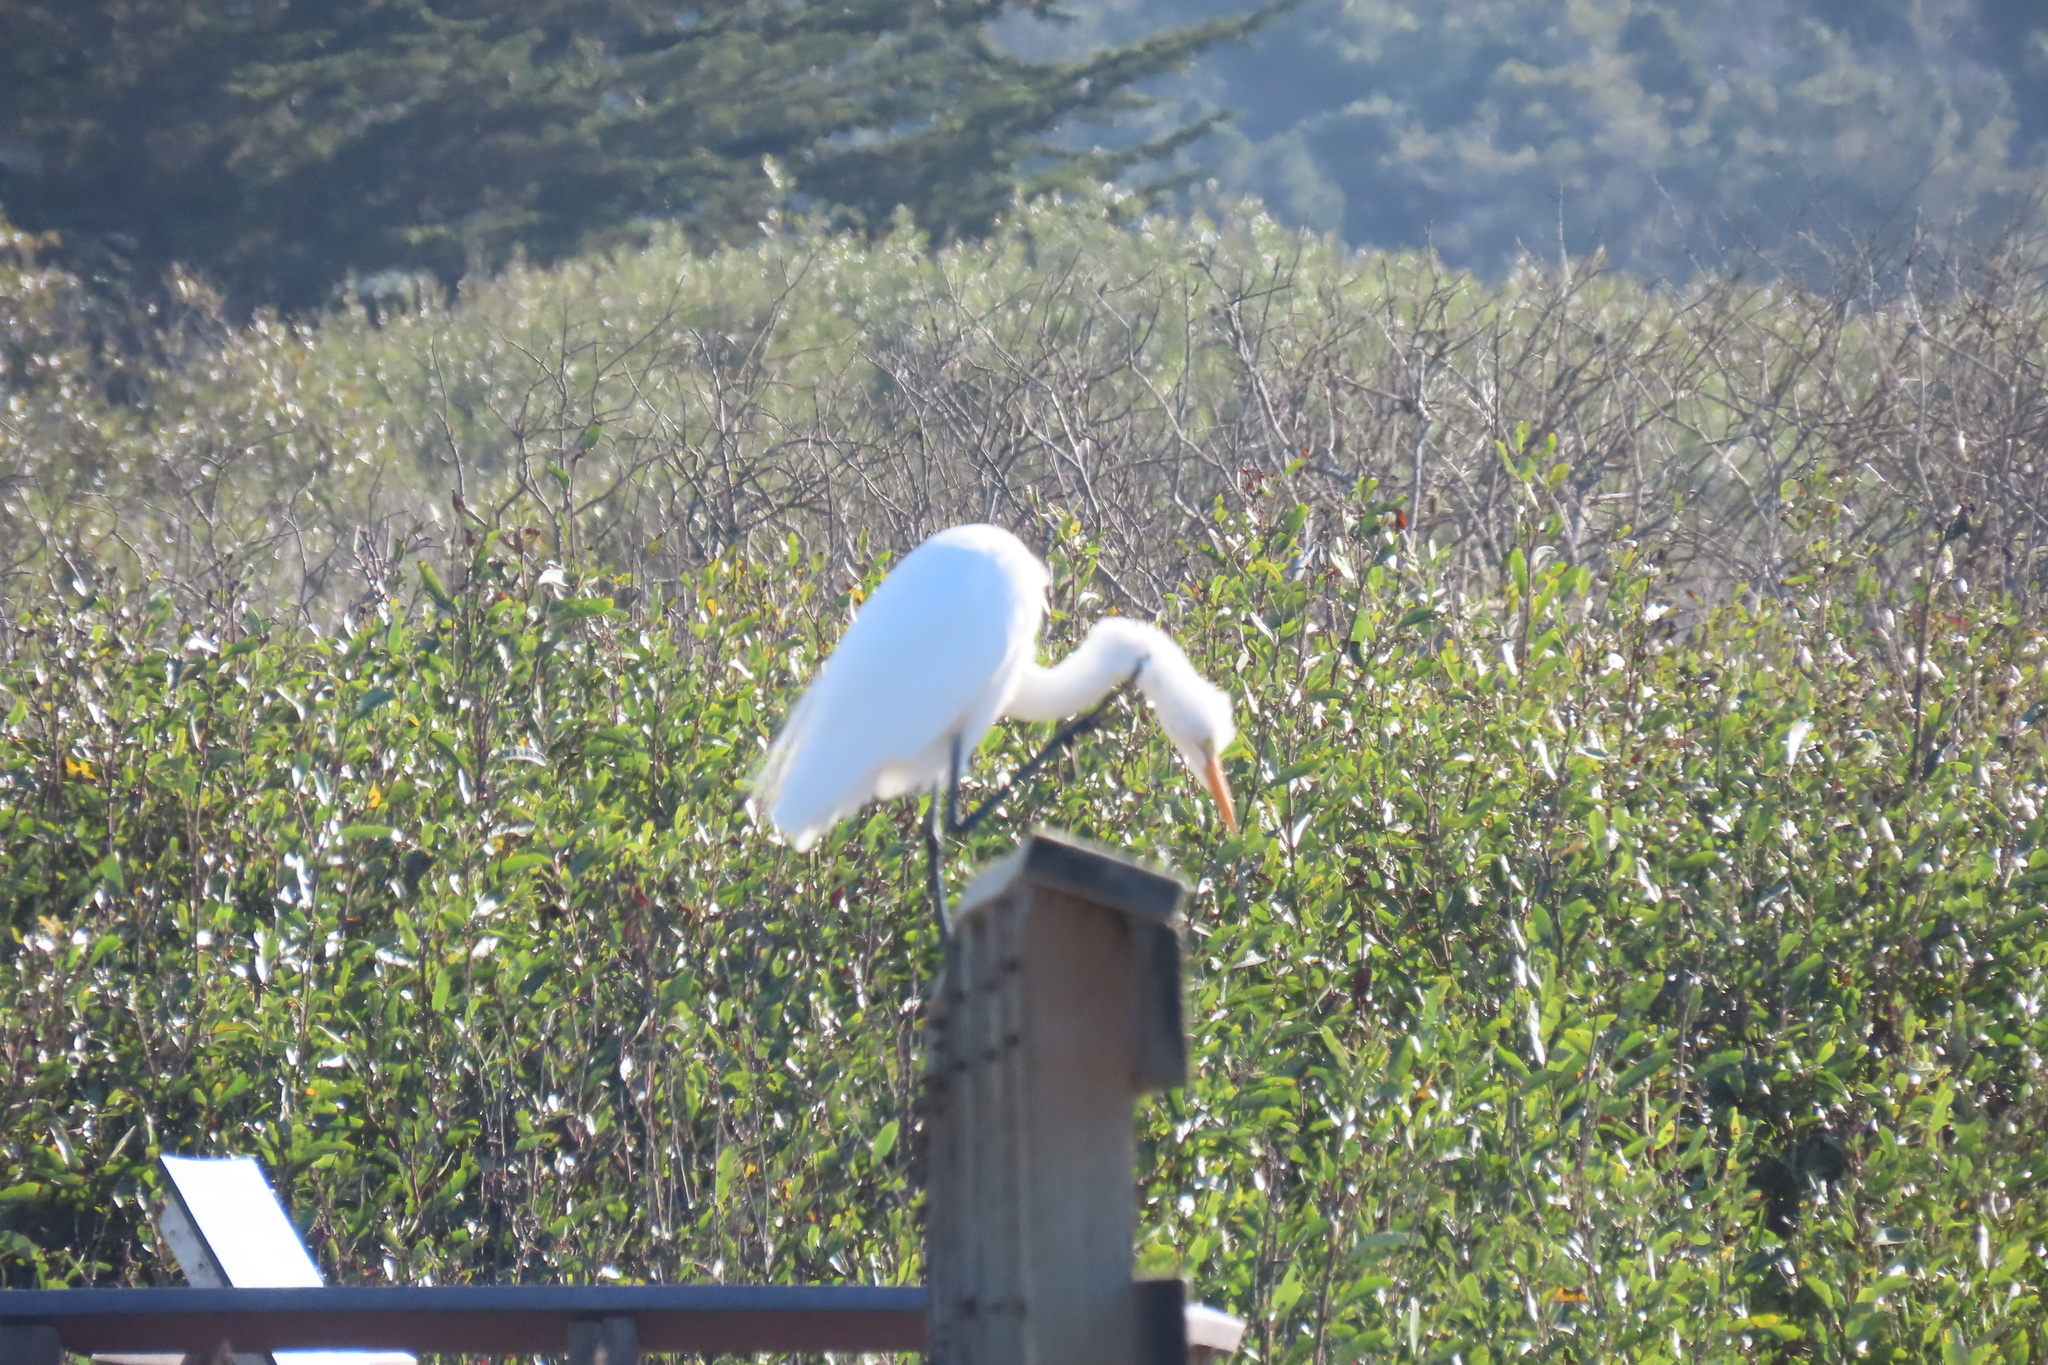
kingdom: Animalia
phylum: Chordata
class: Aves
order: Pelecaniformes
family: Ardeidae
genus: Ardea
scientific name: Ardea alba
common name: Great egret
